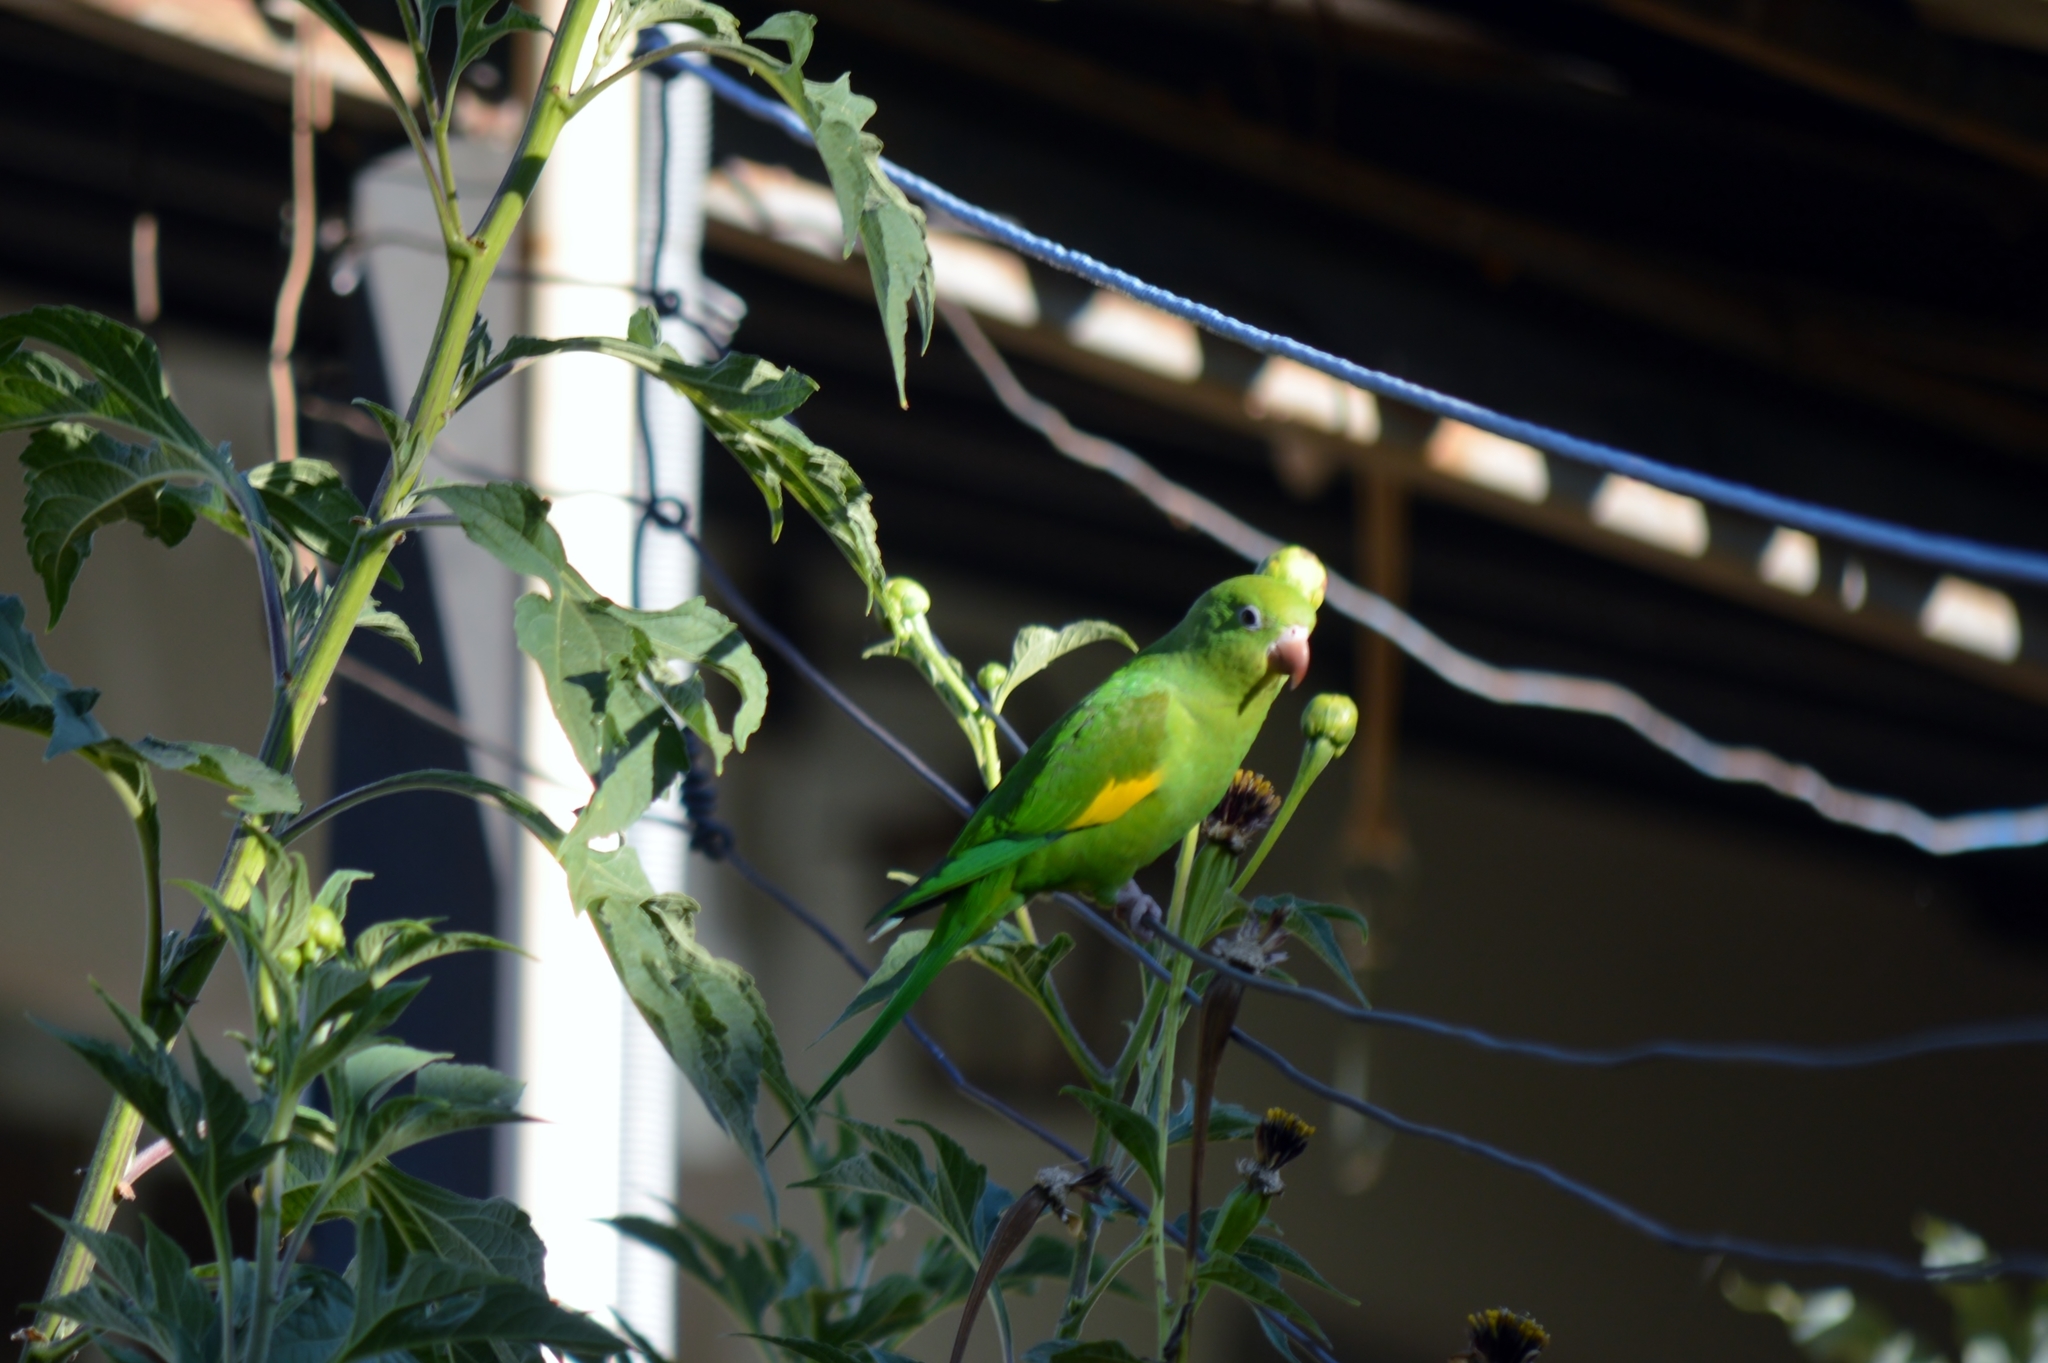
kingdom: Animalia
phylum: Chordata
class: Aves
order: Psittaciformes
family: Psittacidae
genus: Brotogeris
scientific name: Brotogeris chiriri
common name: Yellow-chevroned parakeet
